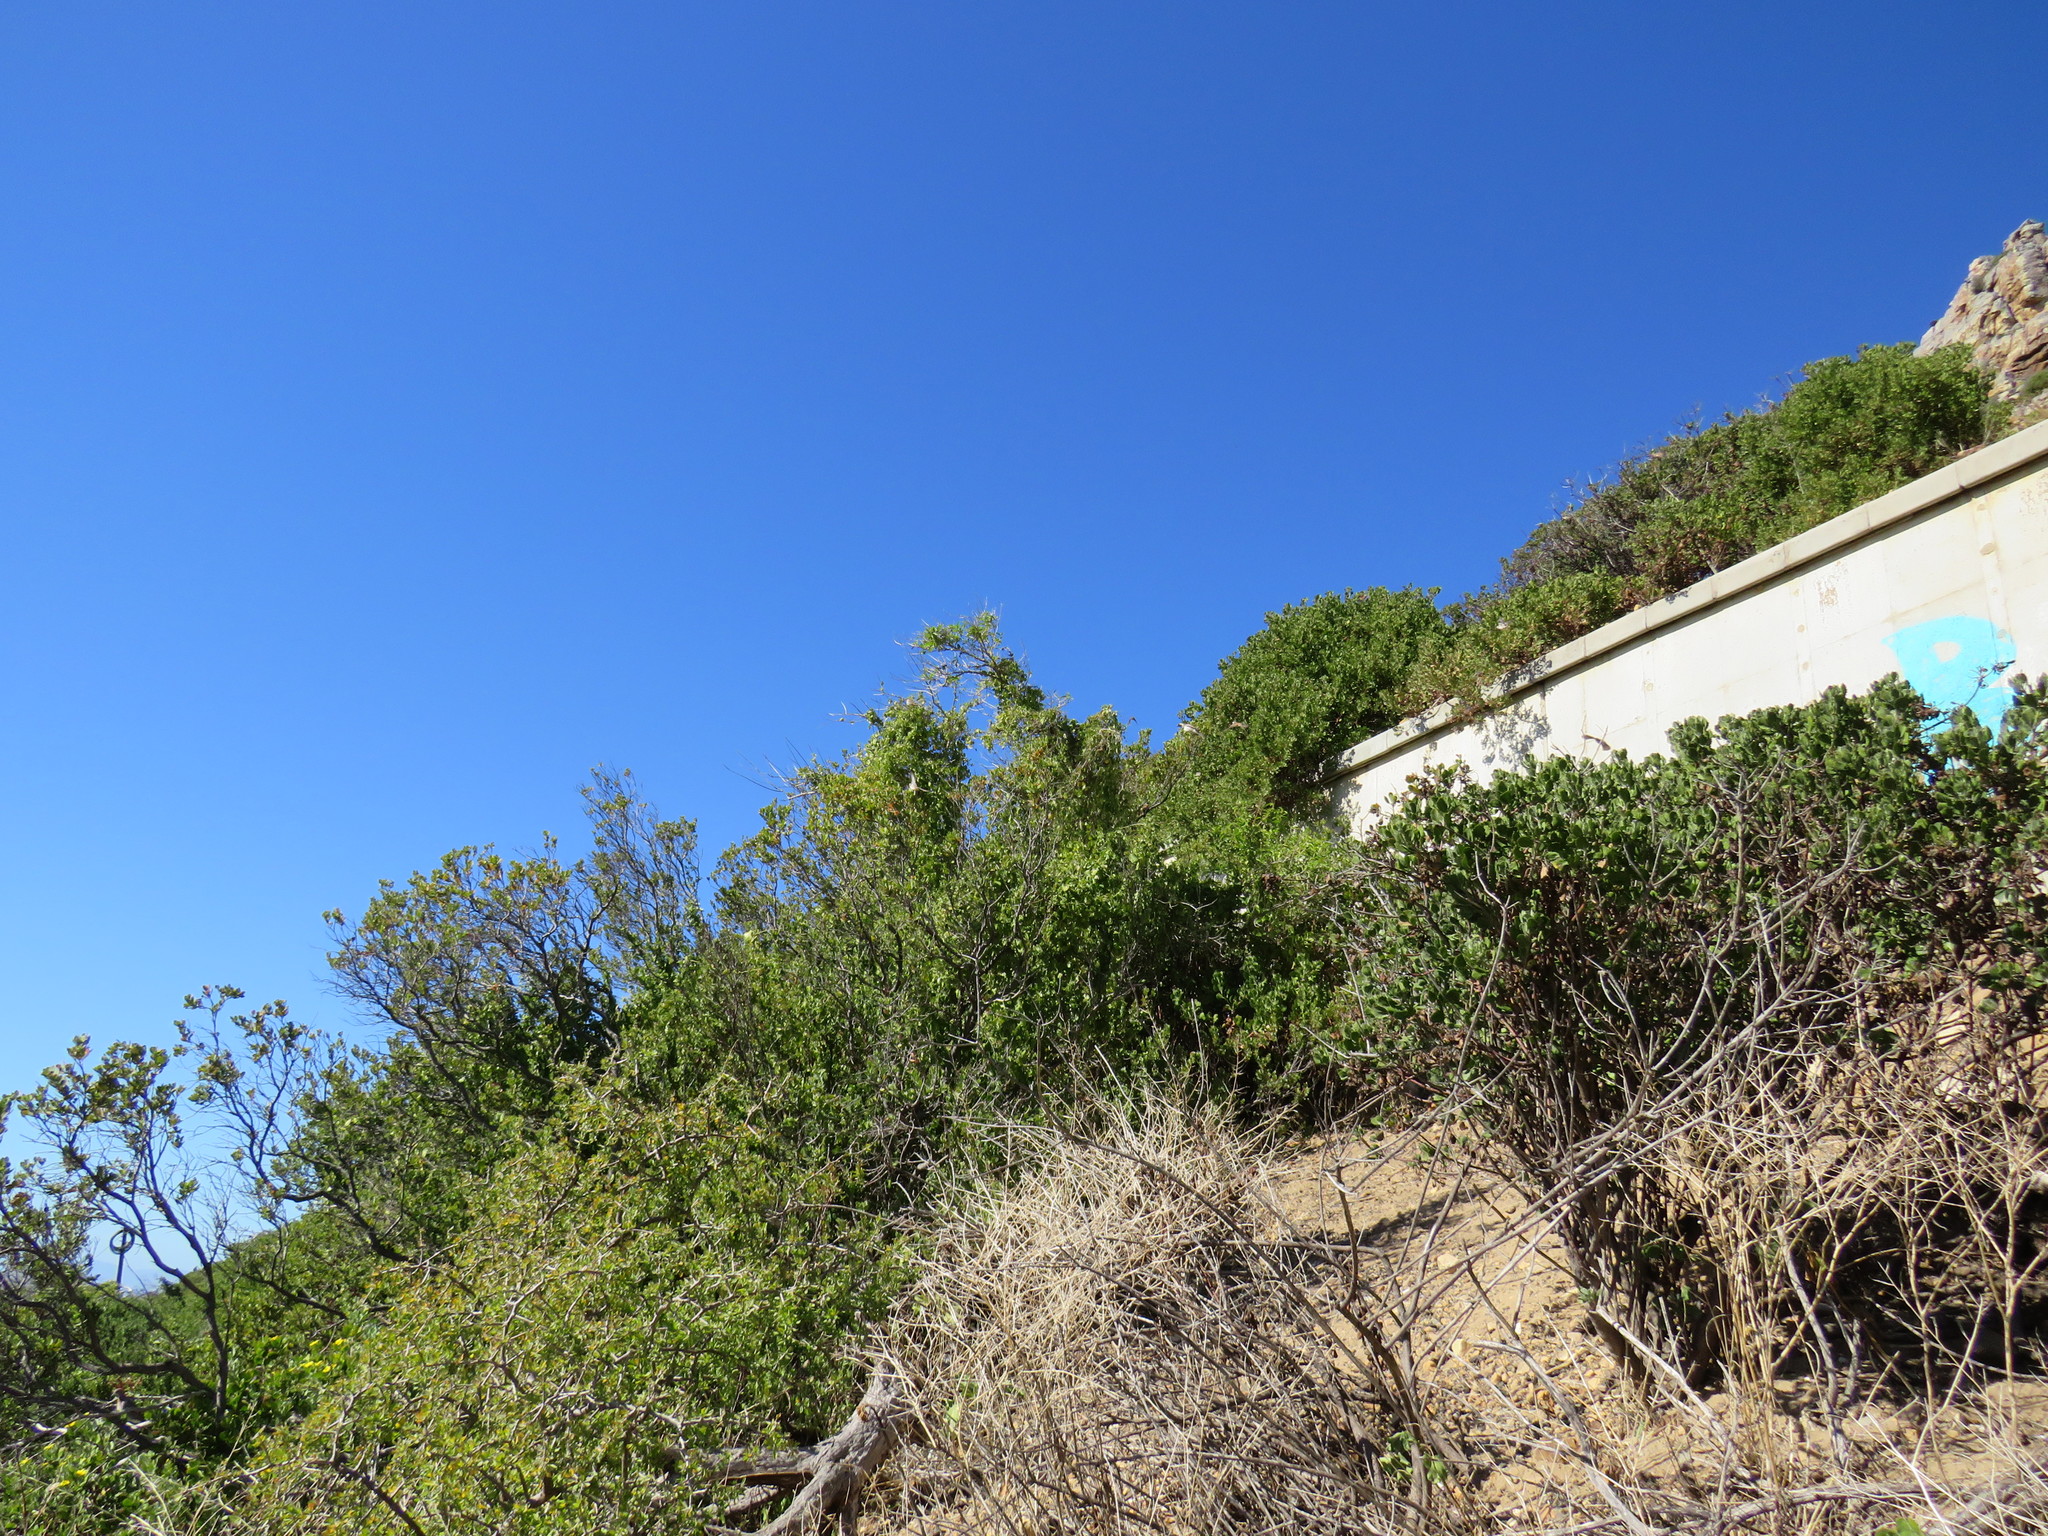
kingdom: Animalia
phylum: Chordata
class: Aves
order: Passeriformes
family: Passeridae
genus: Passer
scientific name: Passer melanurus
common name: Cape sparrow
